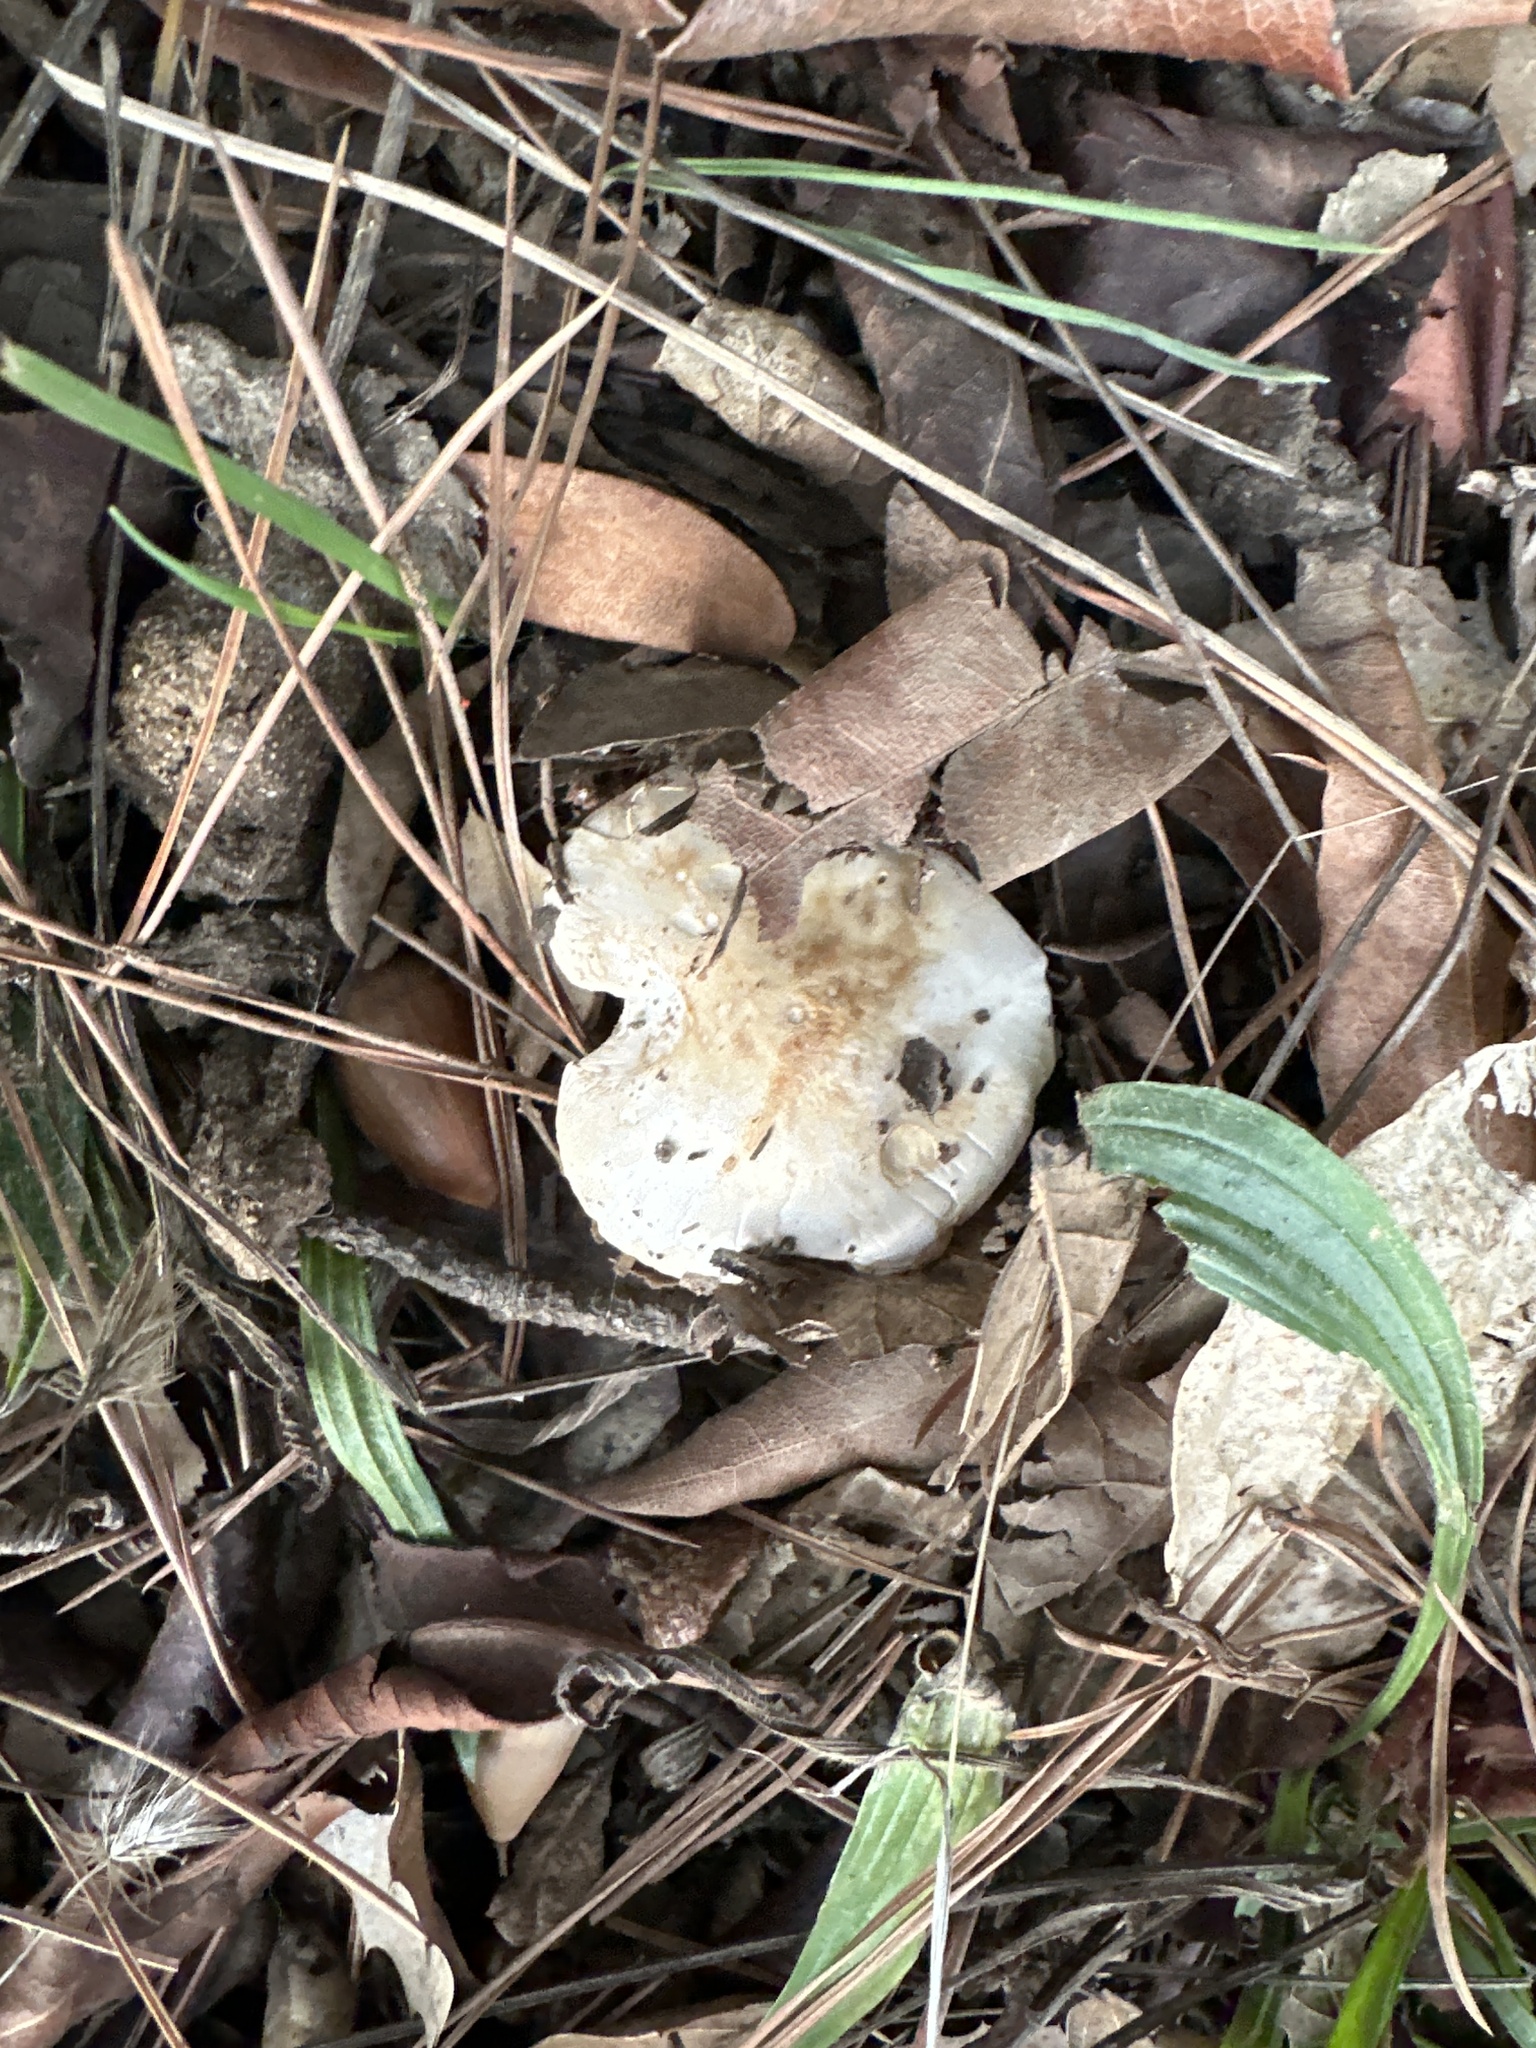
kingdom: Fungi
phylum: Basidiomycota
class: Agaricomycetes
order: Agaricales
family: Hymenogastraceae
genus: Hebeloma
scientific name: Hebeloma crustuliniforme
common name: Poison pie
